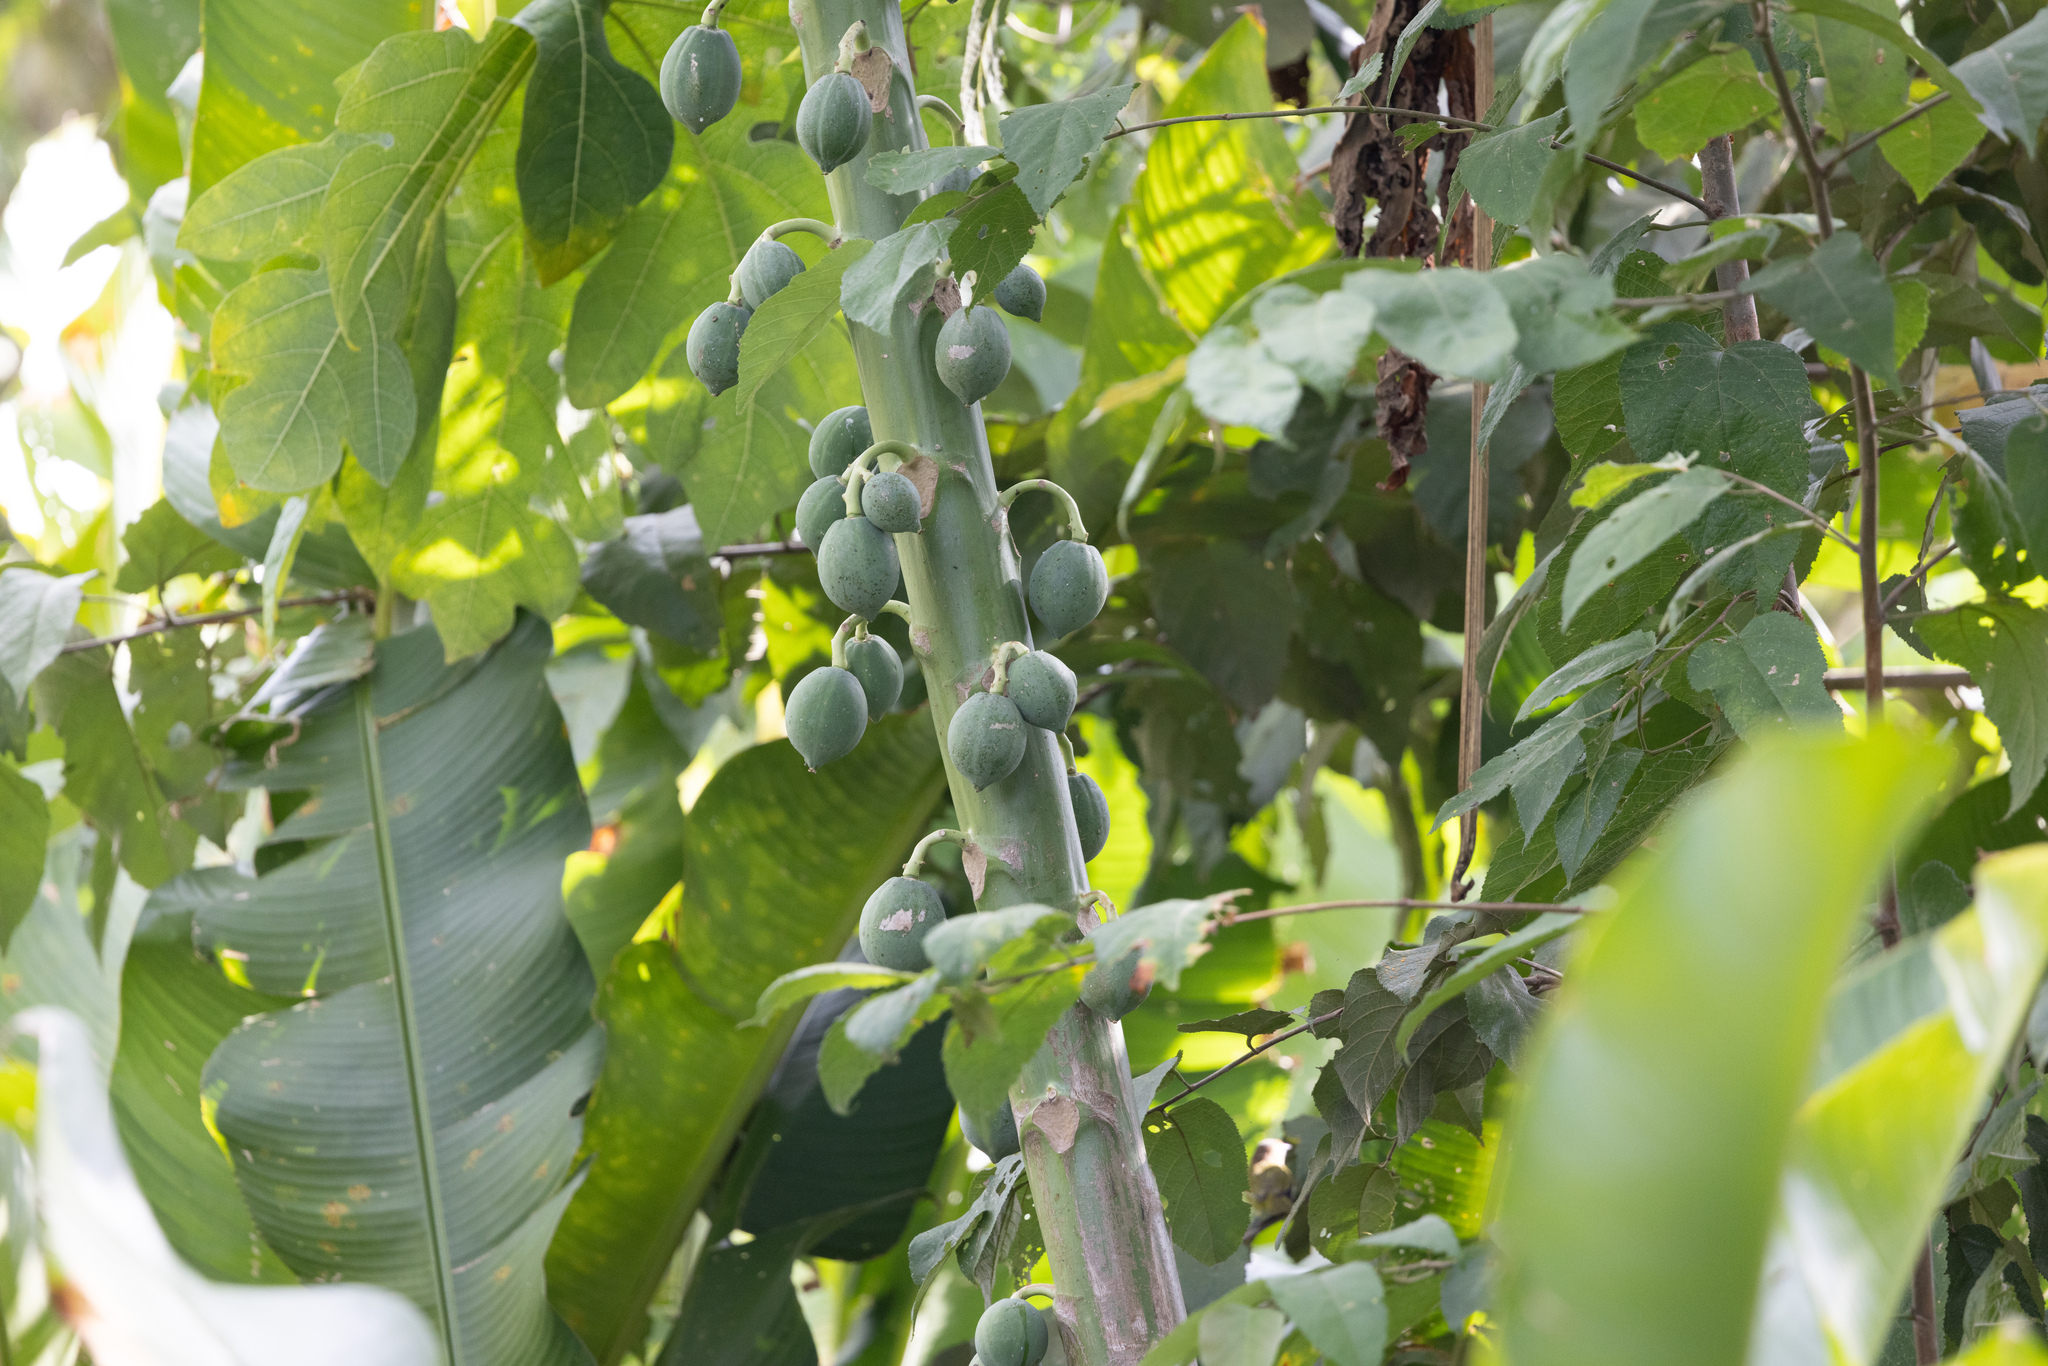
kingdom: Plantae
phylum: Tracheophyta
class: Magnoliopsida
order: Brassicales
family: Caricaceae
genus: Carica
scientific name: Carica papaya
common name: Papaya
